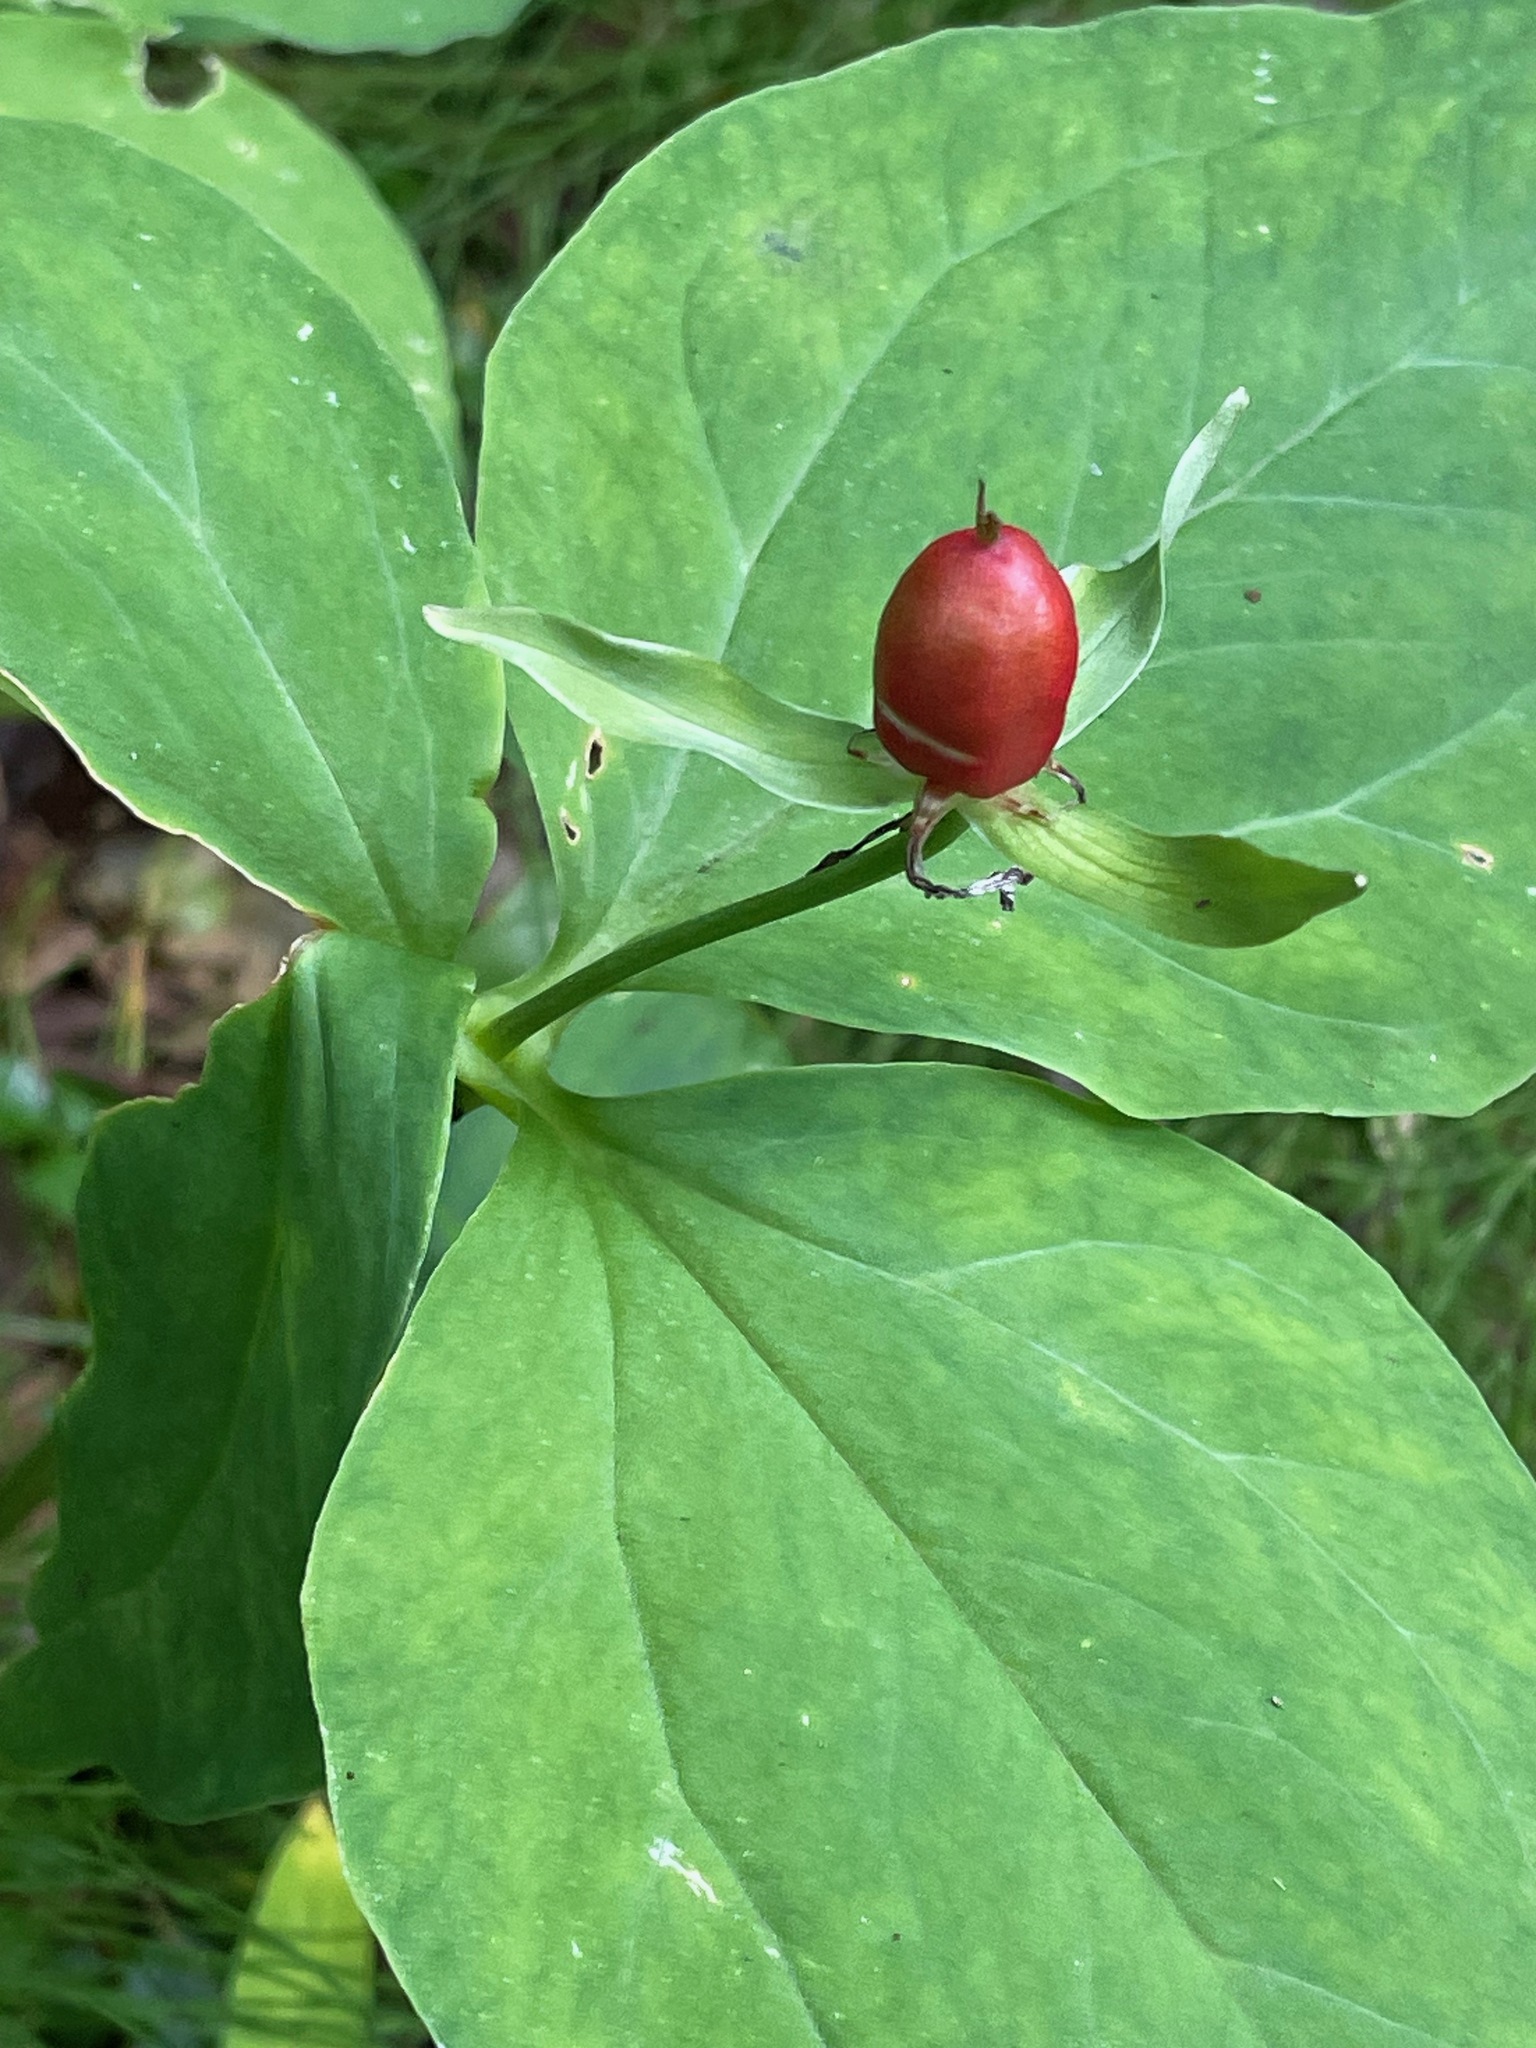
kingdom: Plantae
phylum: Tracheophyta
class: Liliopsida
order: Liliales
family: Melanthiaceae
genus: Trillium
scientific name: Trillium undulatum
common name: Paint trillium
